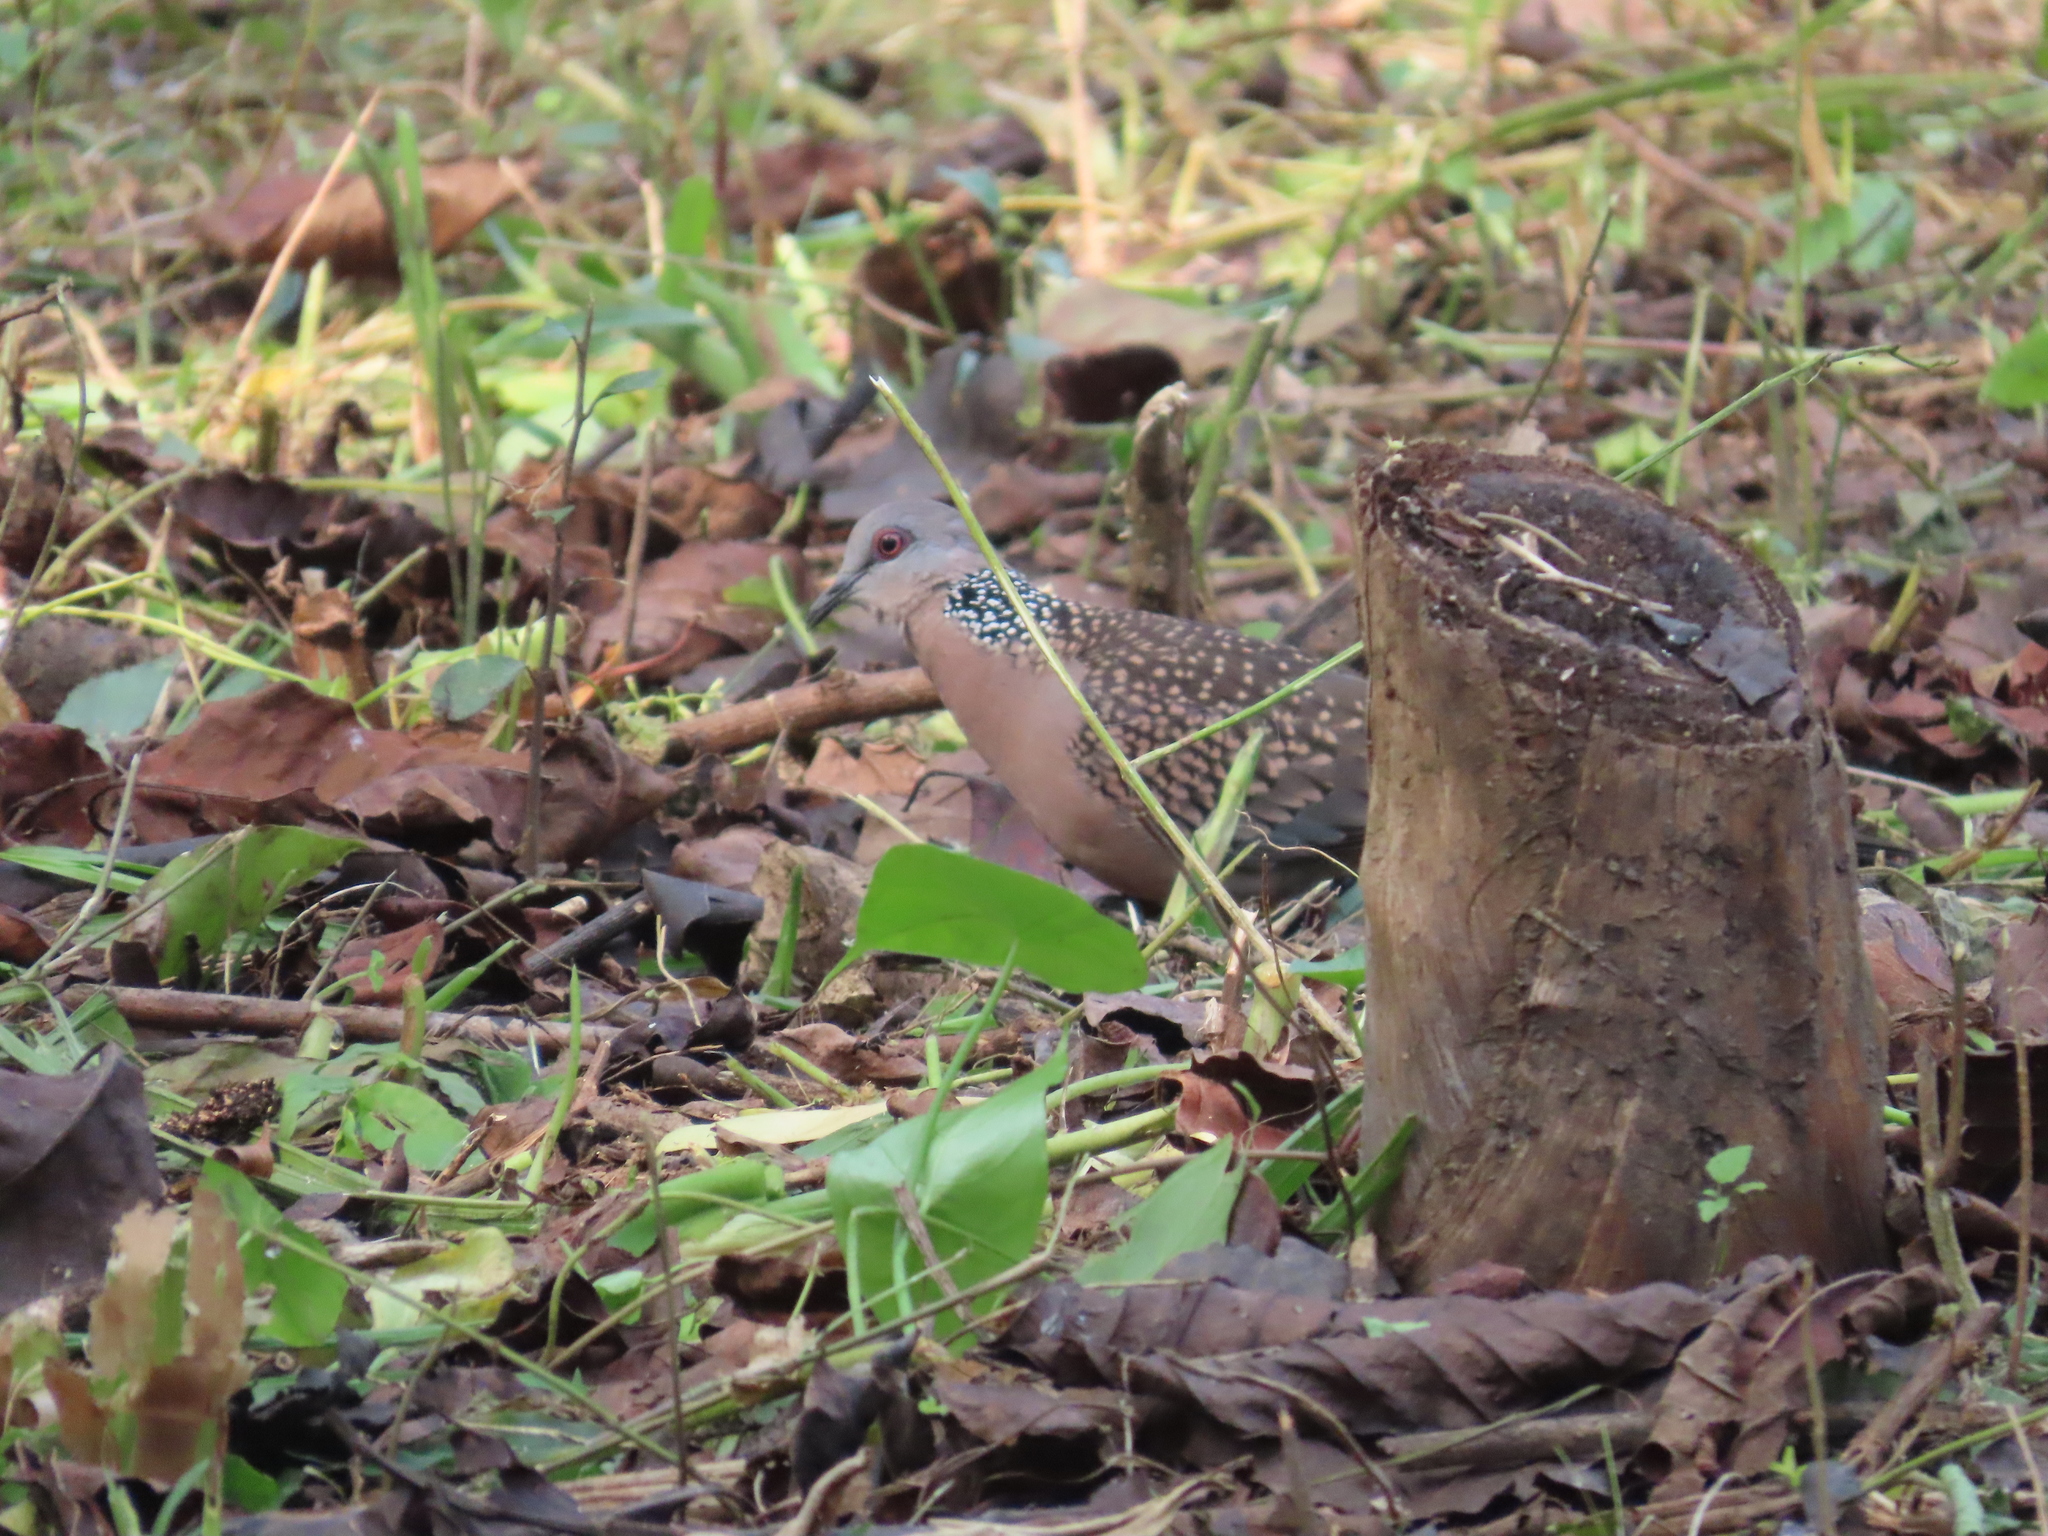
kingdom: Animalia
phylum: Chordata
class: Aves
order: Columbiformes
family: Columbidae
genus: Spilopelia
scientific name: Spilopelia chinensis
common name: Spotted dove
